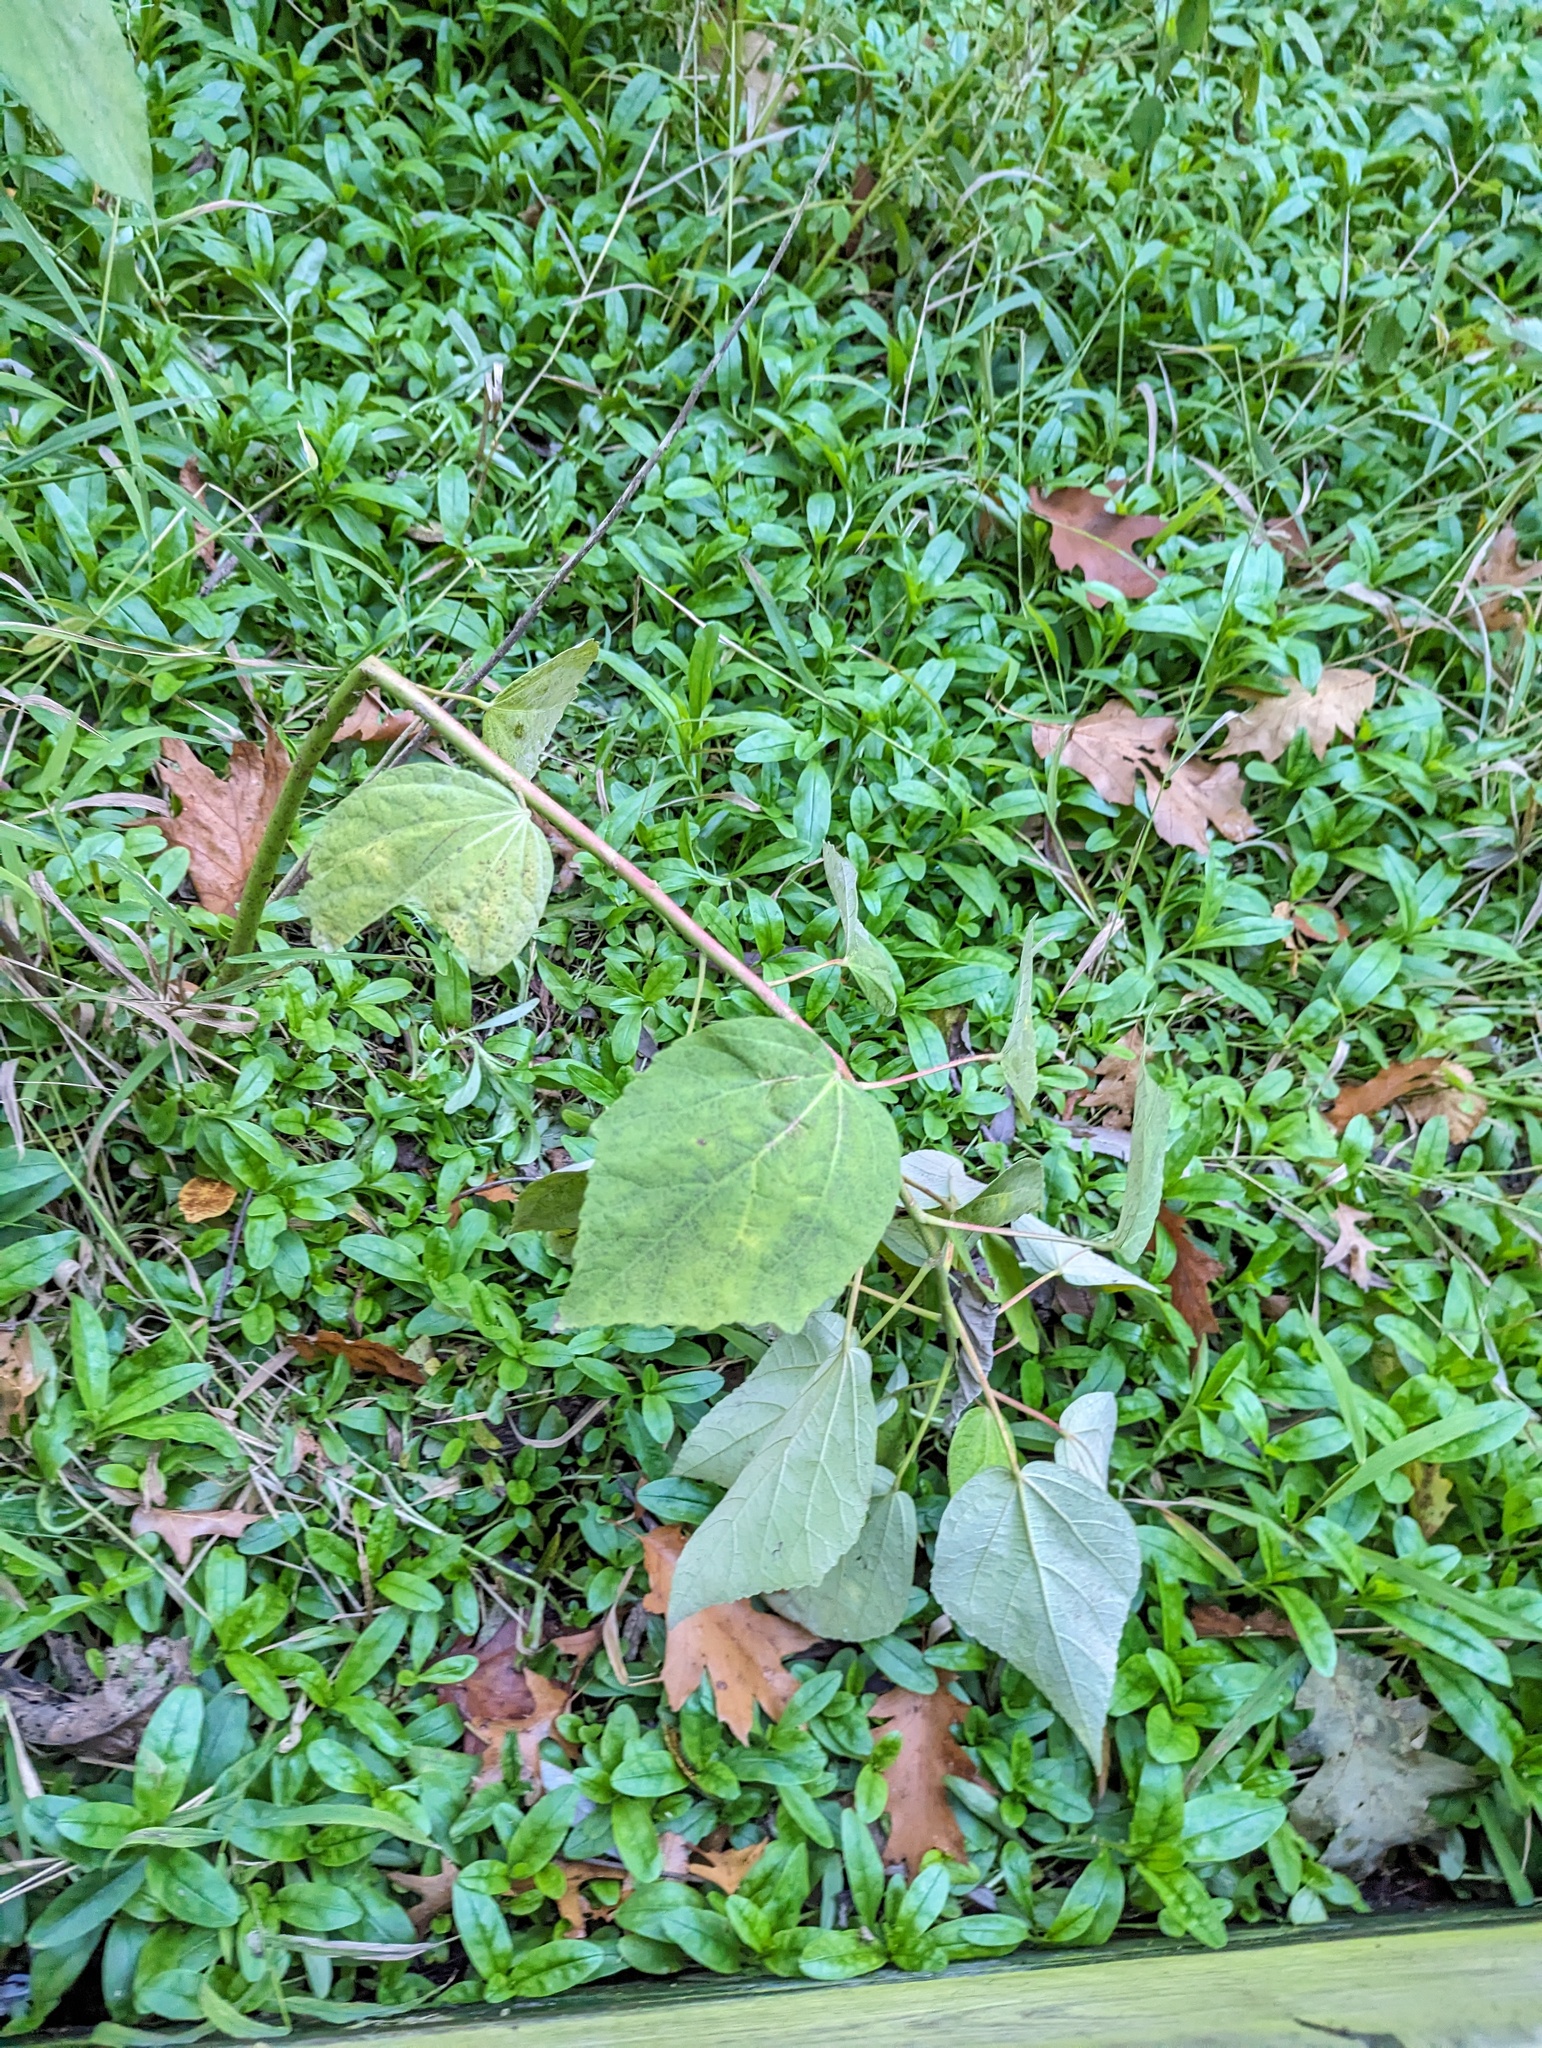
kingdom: Plantae
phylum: Tracheophyta
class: Magnoliopsida
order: Malvales
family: Malvaceae
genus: Hibiscus
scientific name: Hibiscus moscheutos
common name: Common rose-mallow
